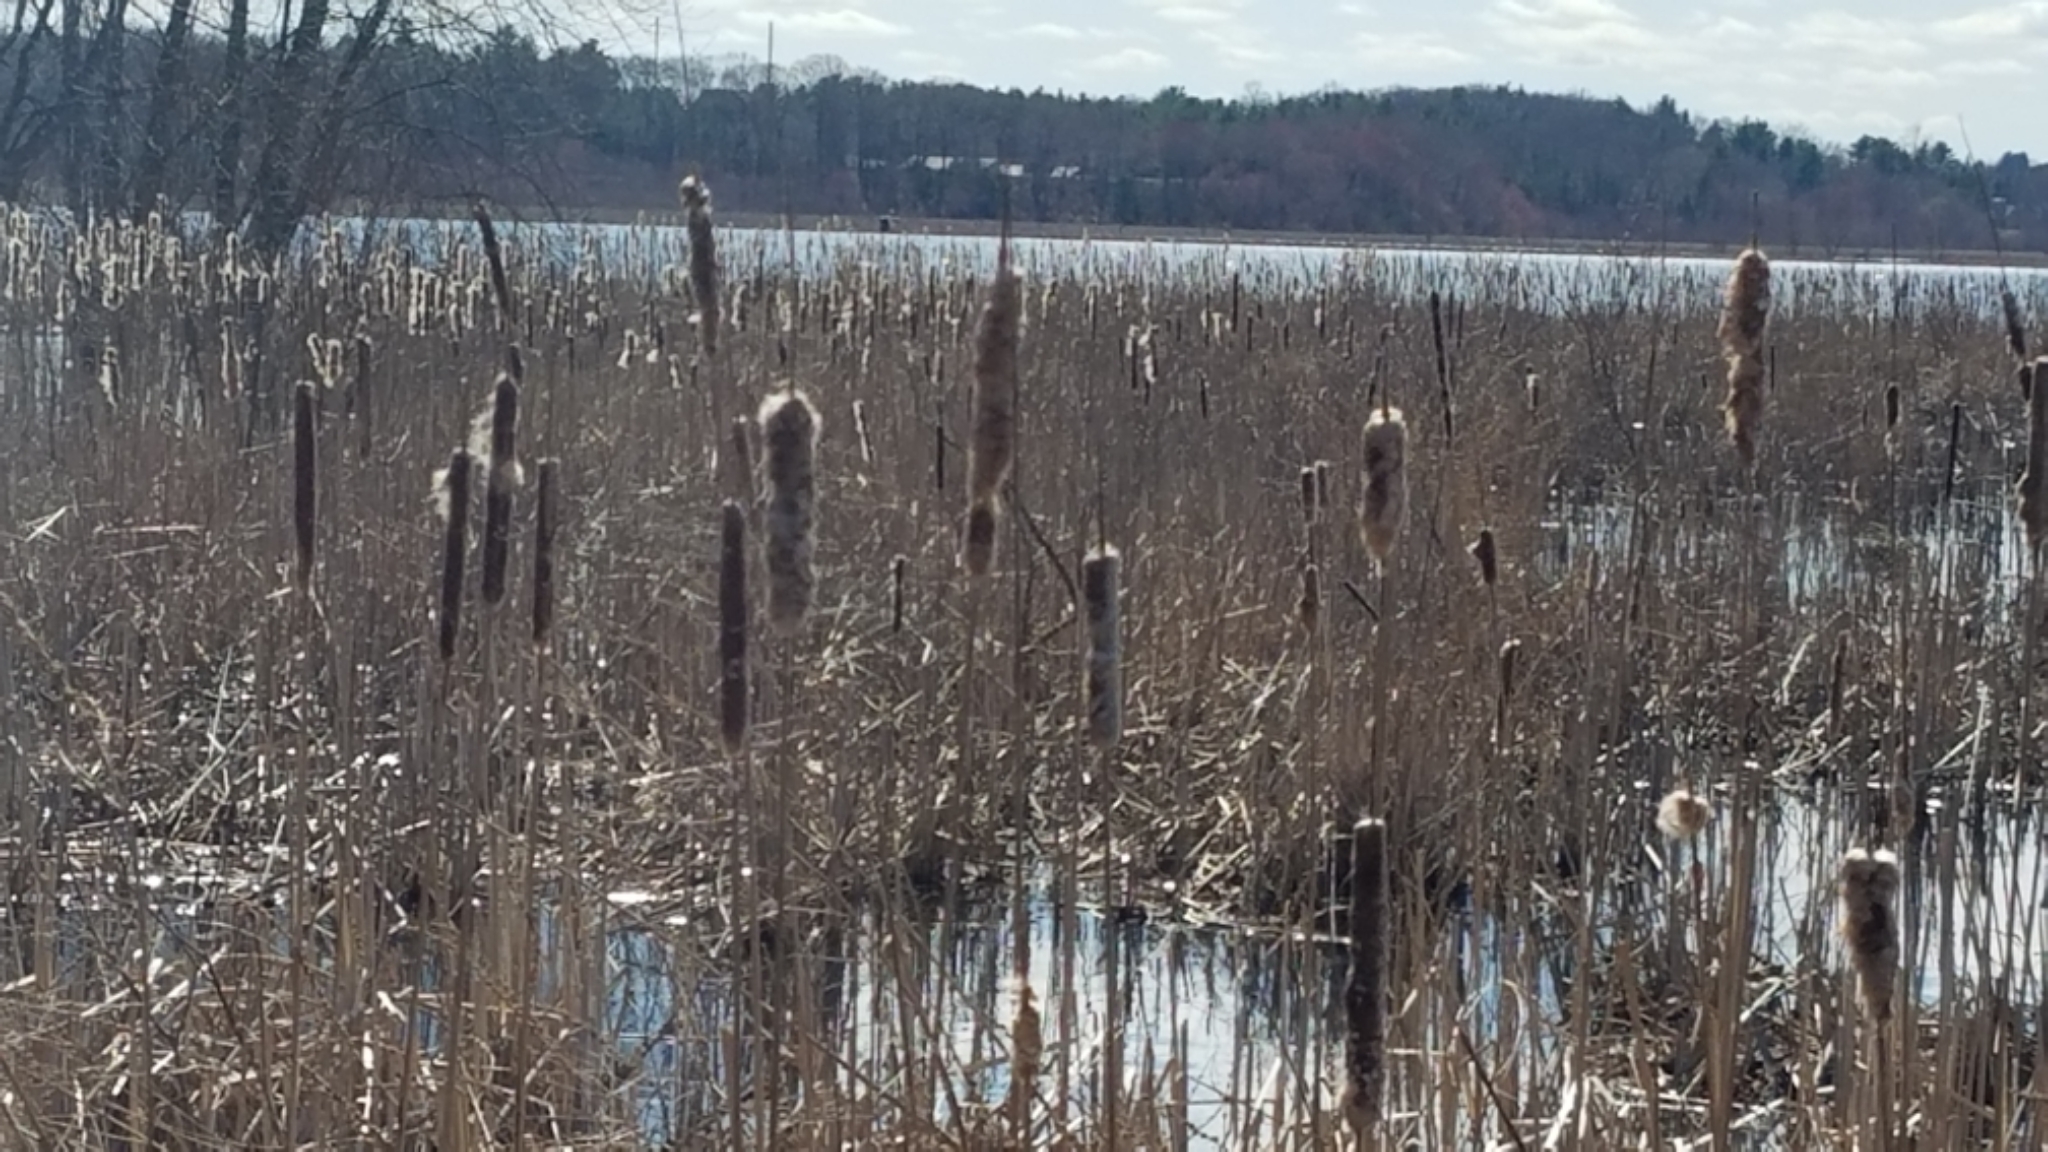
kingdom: Plantae
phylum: Tracheophyta
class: Liliopsida
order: Poales
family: Typhaceae
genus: Typha
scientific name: Typha
